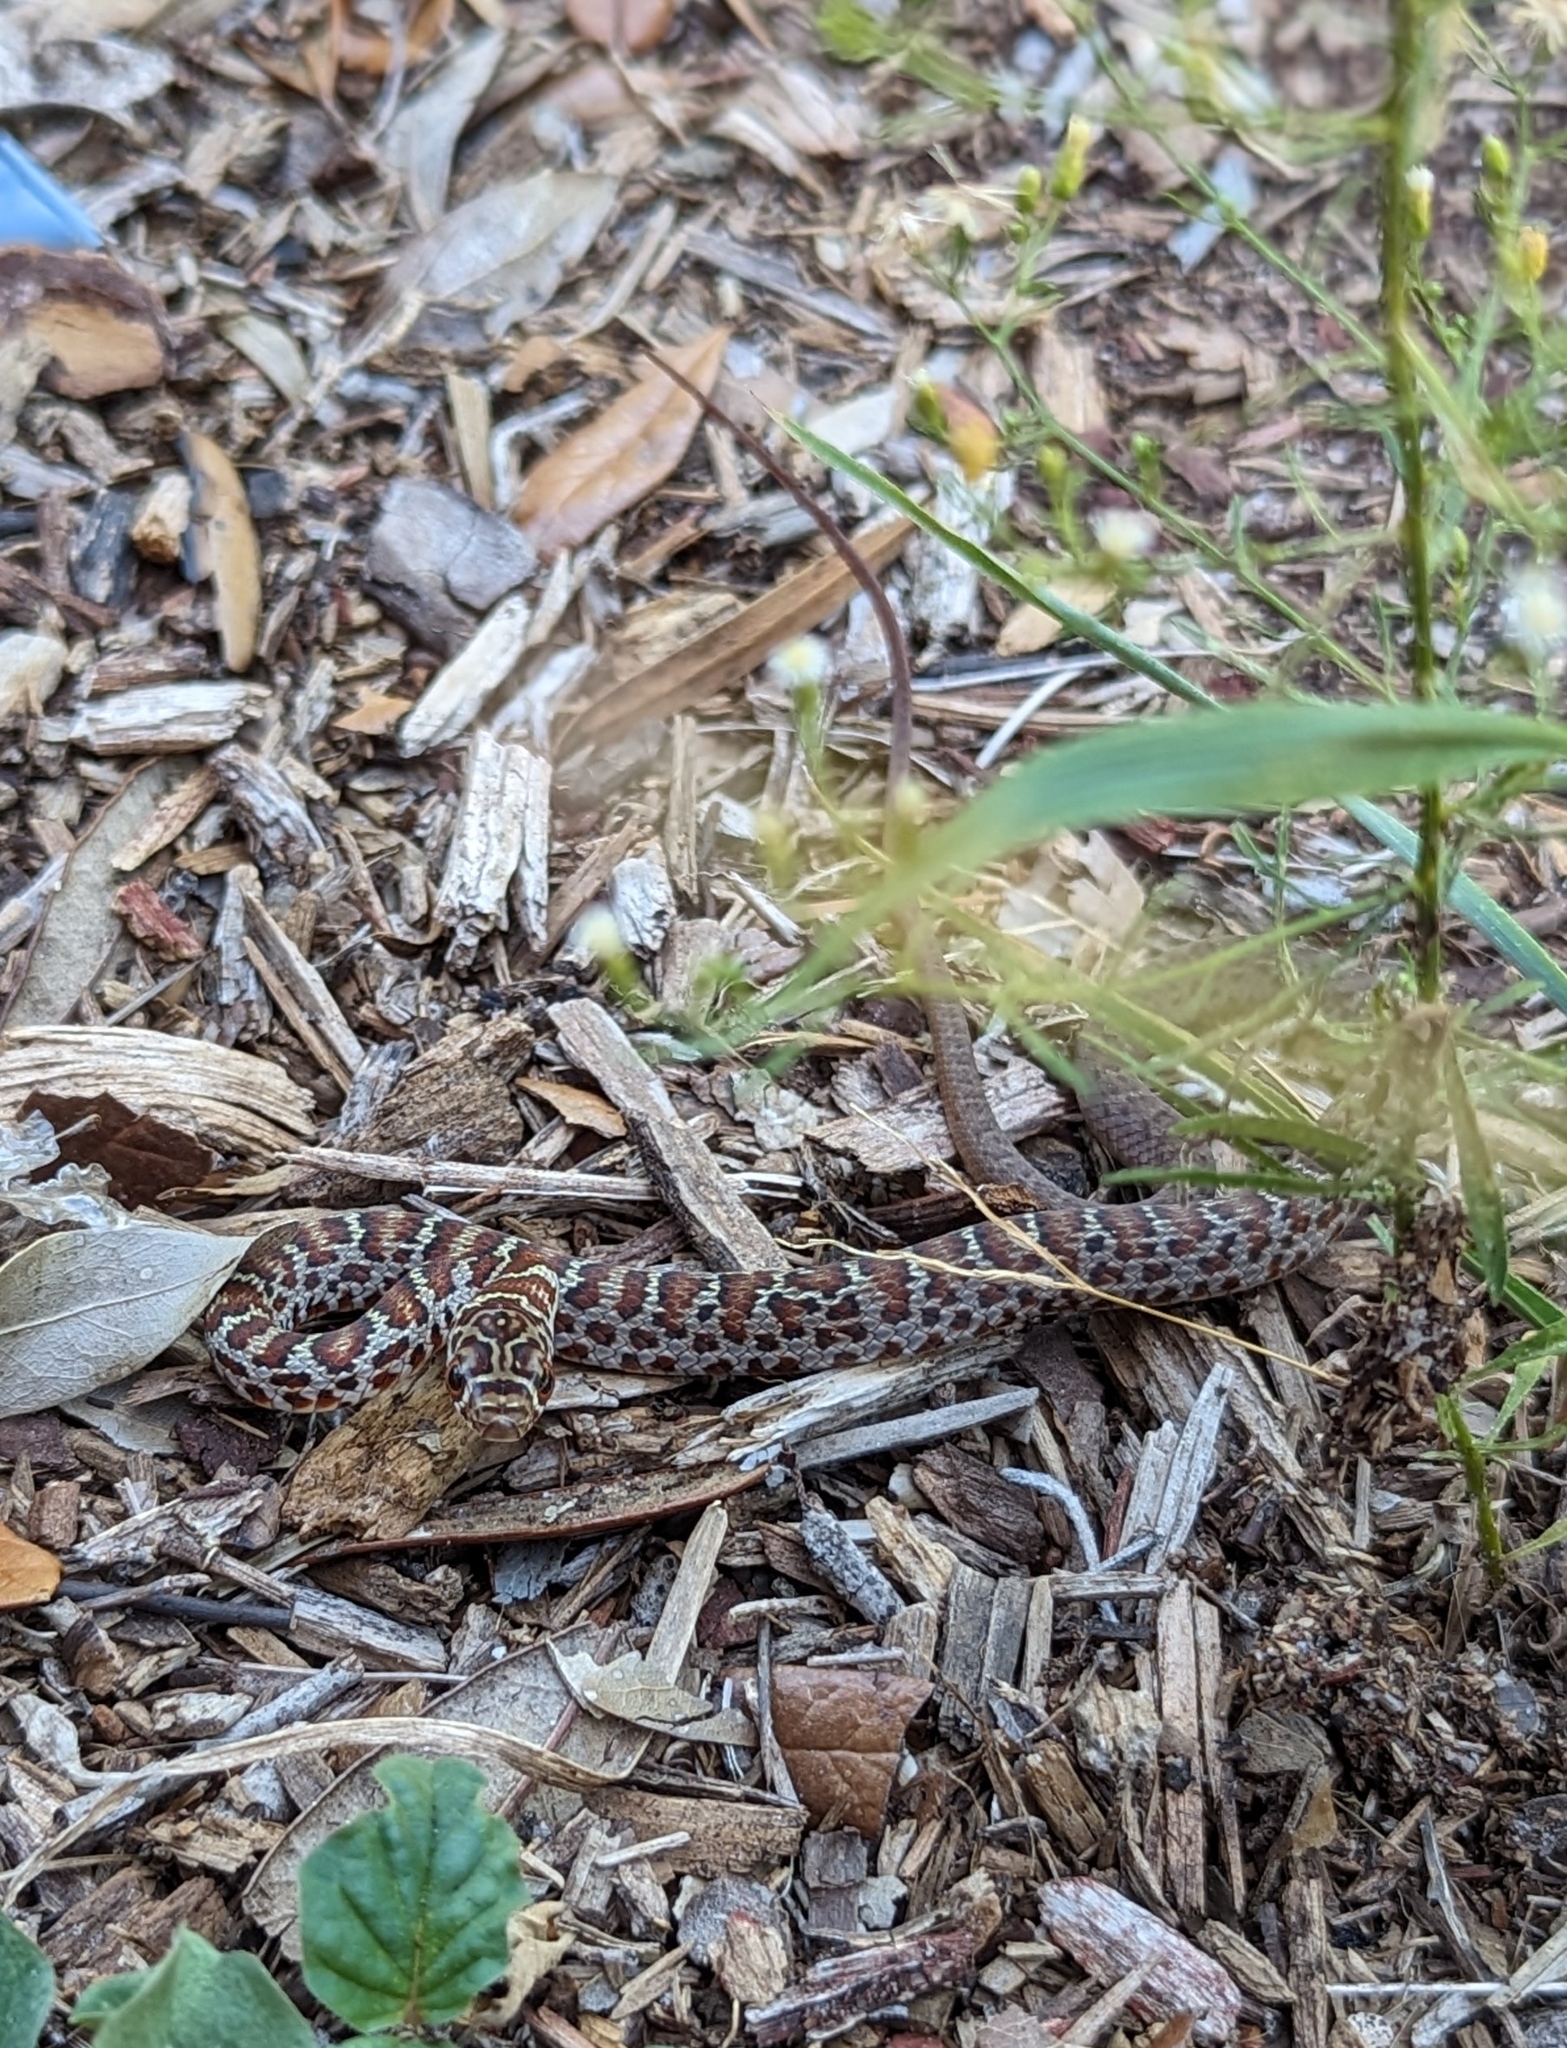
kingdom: Animalia
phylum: Chordata
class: Squamata
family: Colubridae
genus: Coluber
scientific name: Coluber constrictor
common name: Eastern racer
